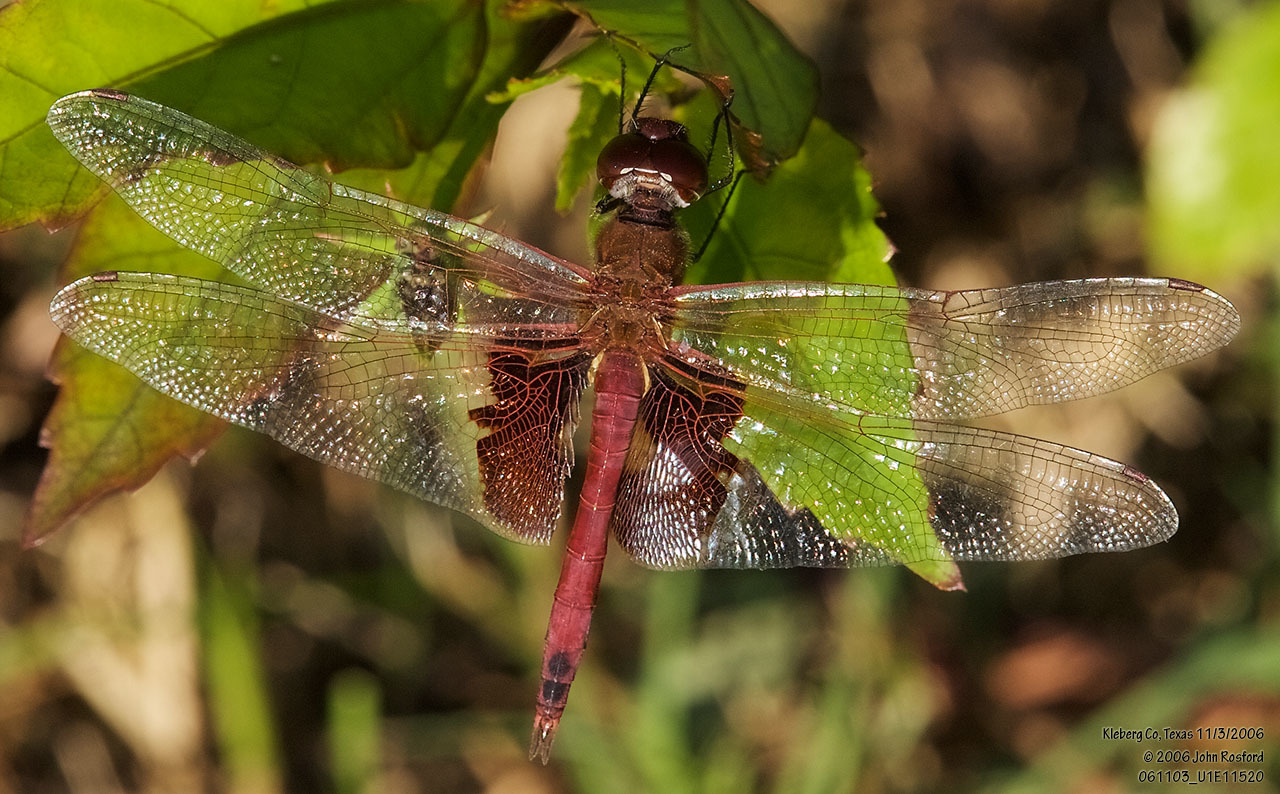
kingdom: Animalia
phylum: Arthropoda
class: Insecta
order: Odonata
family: Libellulidae
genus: Tramea
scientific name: Tramea onusta
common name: Red saddlebags
